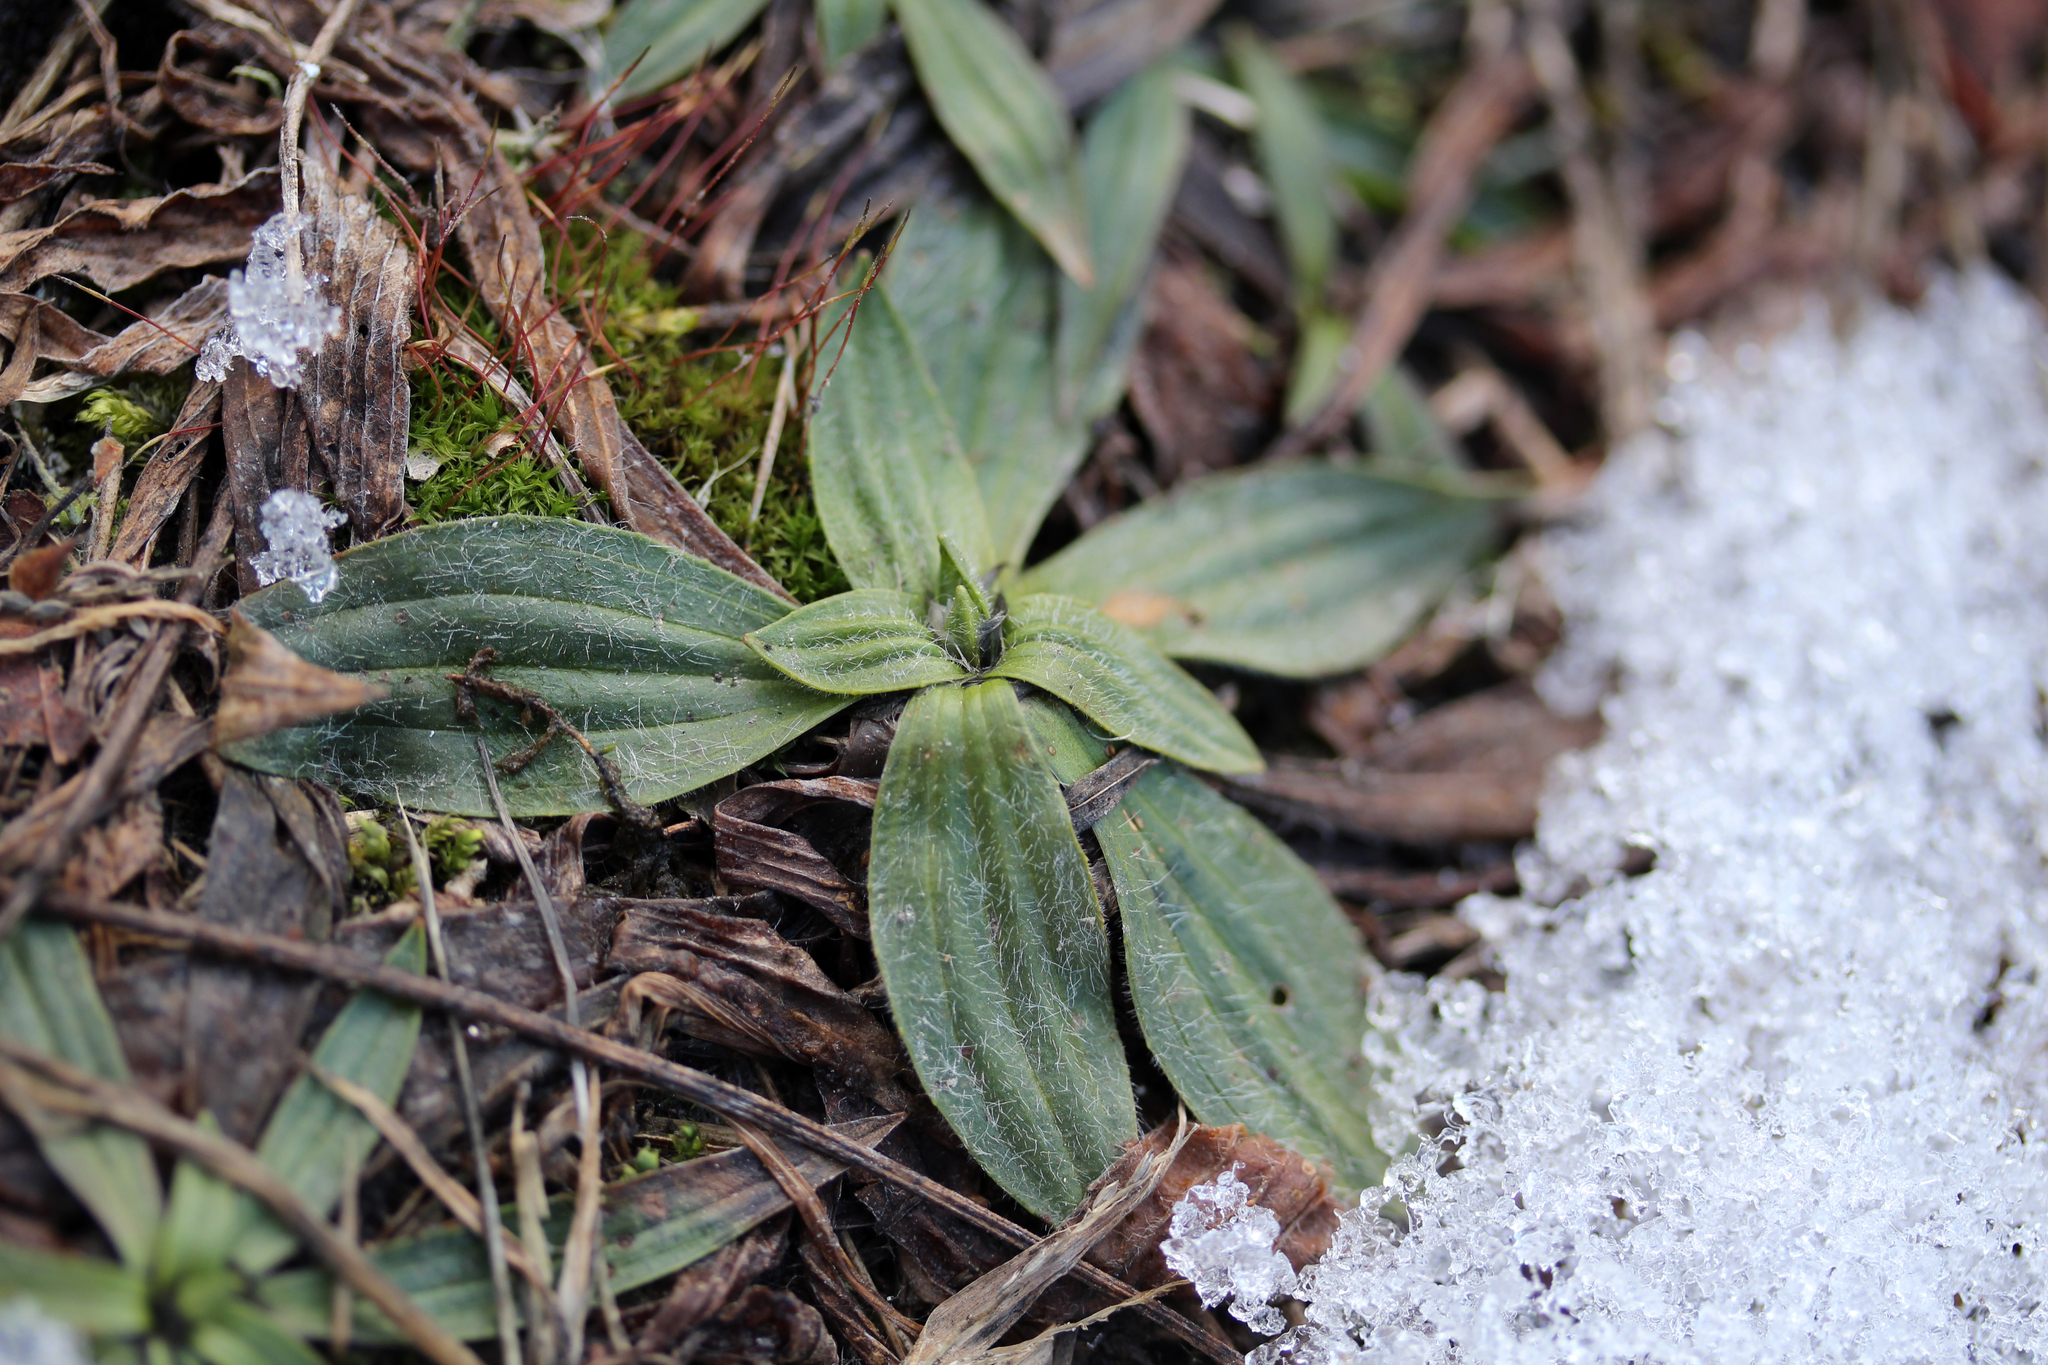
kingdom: Plantae
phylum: Tracheophyta
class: Magnoliopsida
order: Lamiales
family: Plantaginaceae
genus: Plantago
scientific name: Plantago lanceolata
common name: Ribwort plantain
